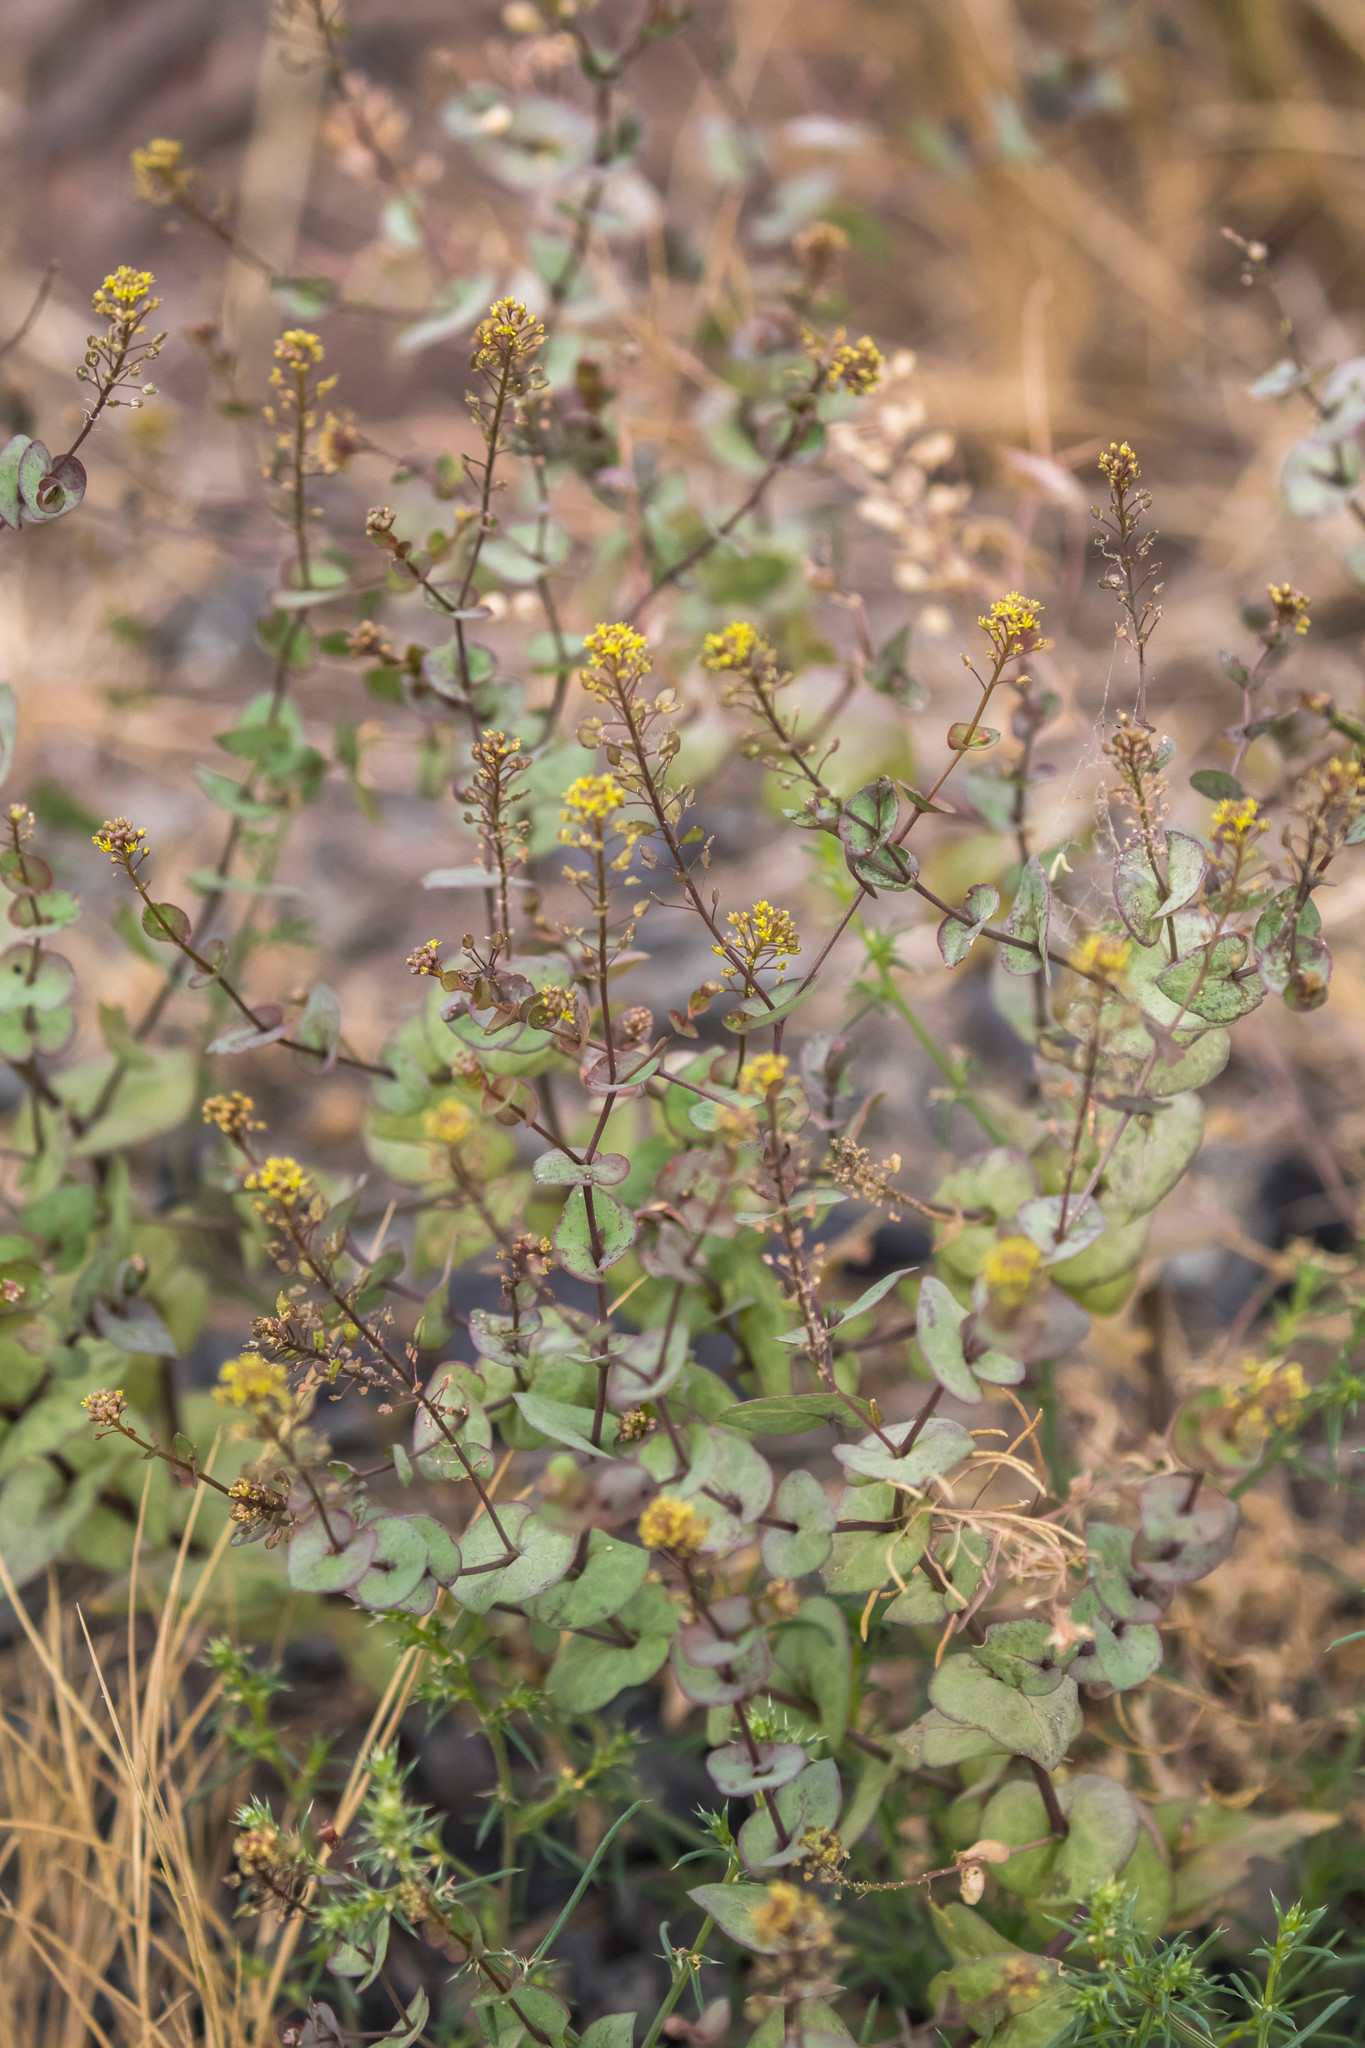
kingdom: Plantae
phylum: Tracheophyta
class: Magnoliopsida
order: Brassicales
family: Brassicaceae
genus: Lepidium
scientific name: Lepidium perfoliatum
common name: Perfoliate pepperwort
